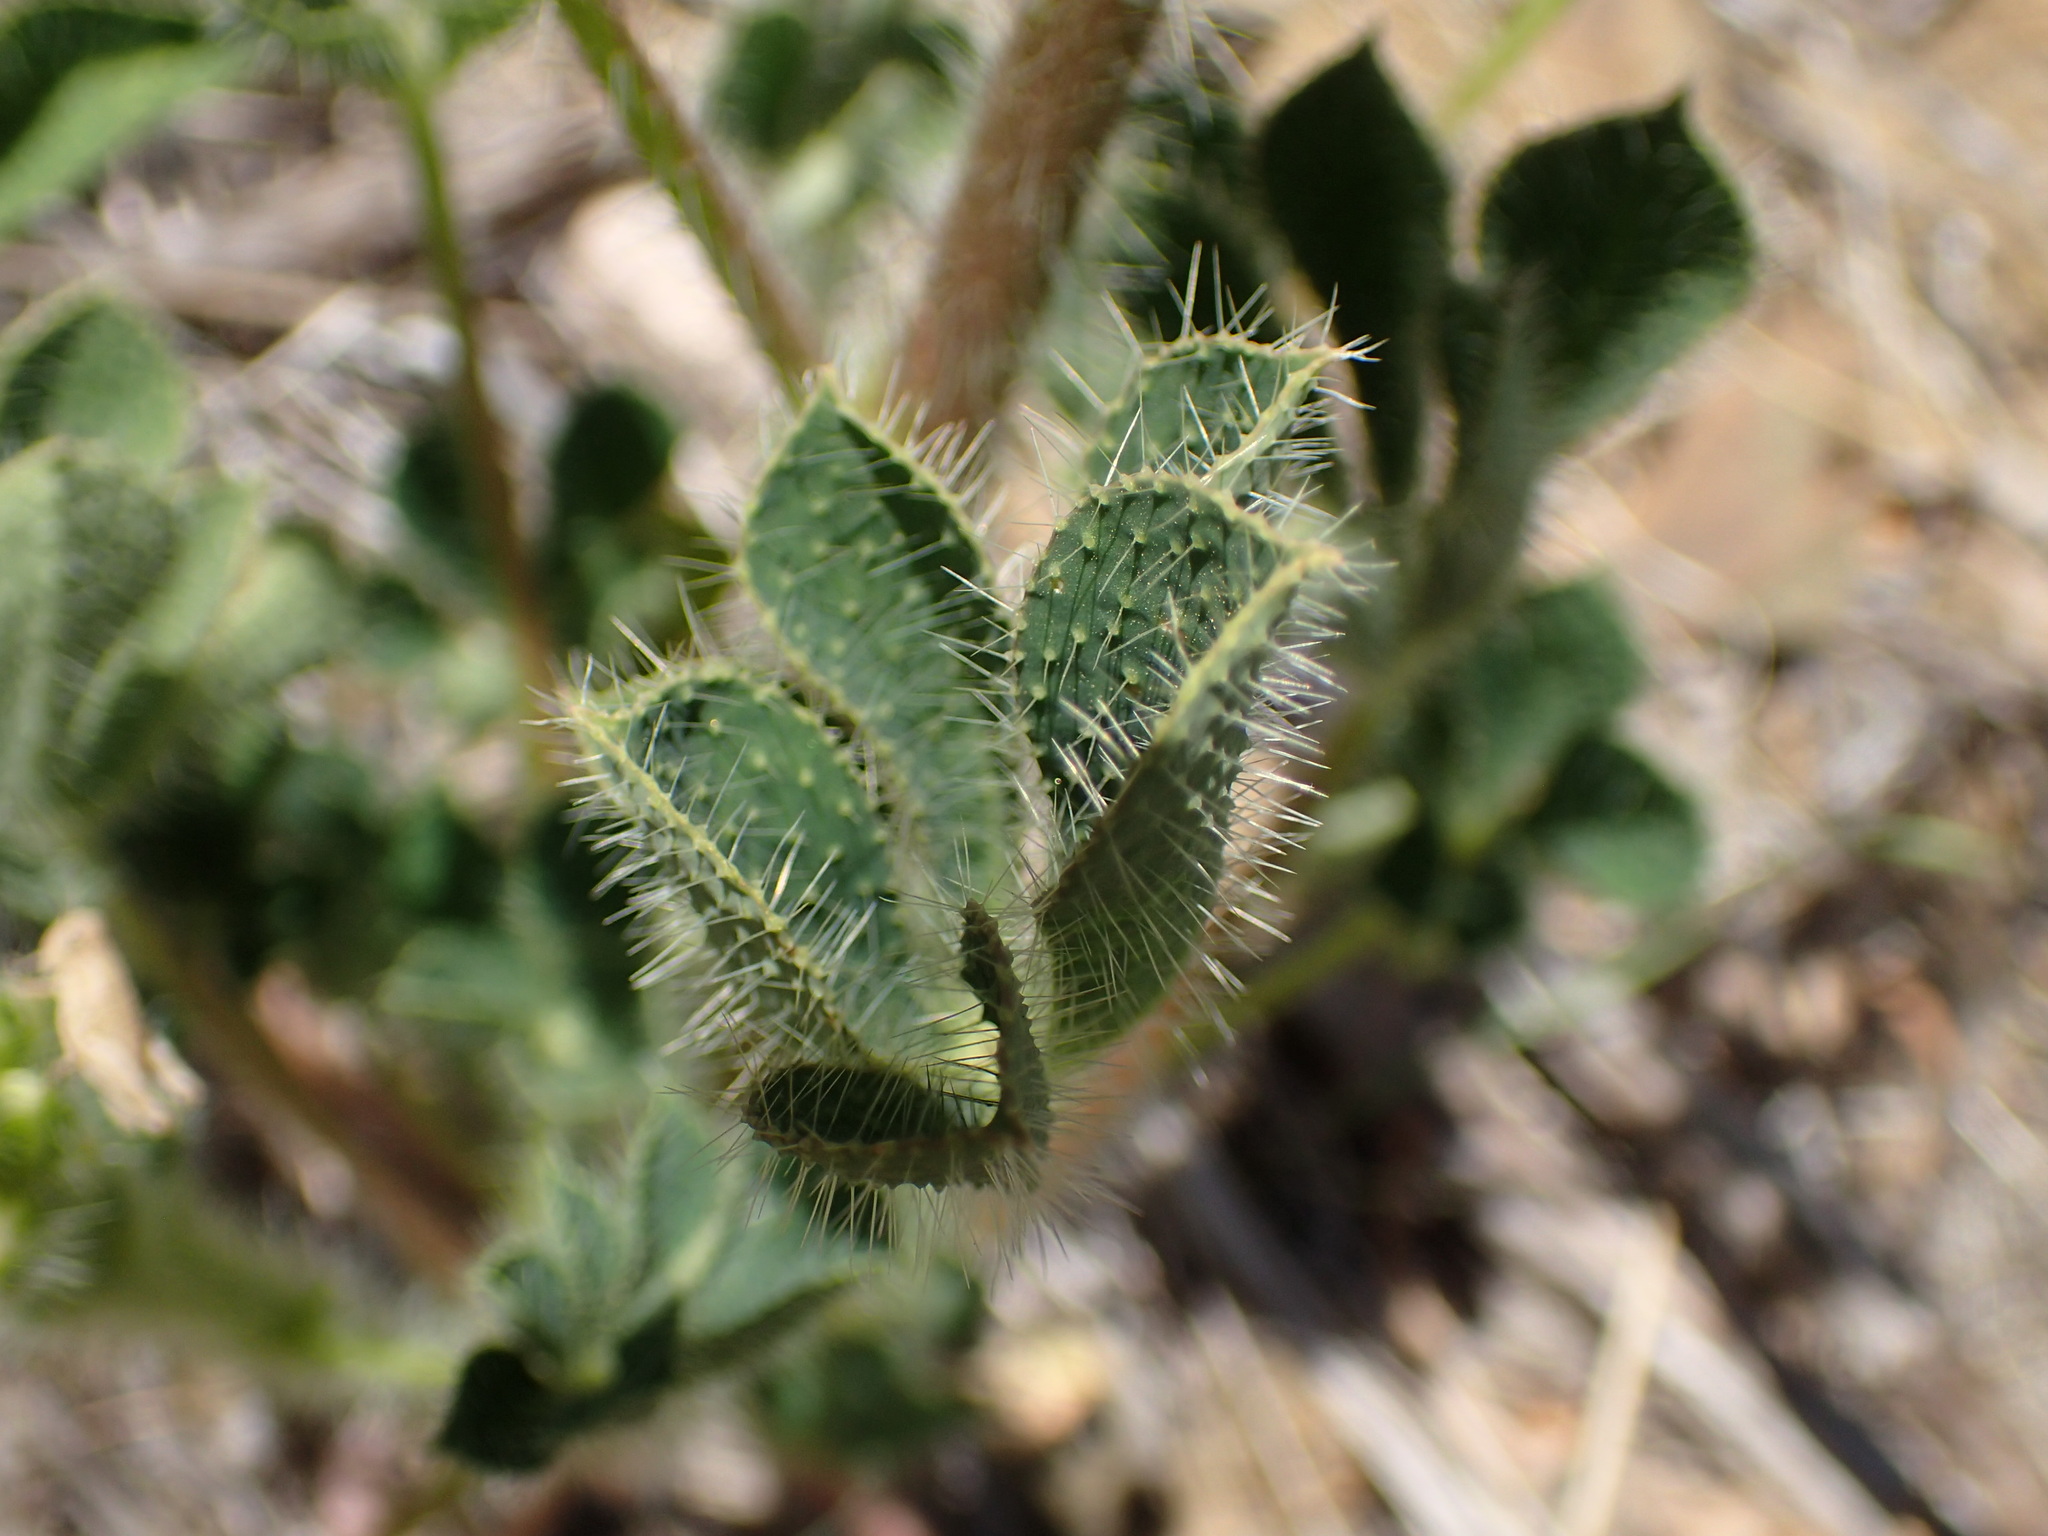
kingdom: Plantae
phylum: Tracheophyta
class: Magnoliopsida
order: Fabales
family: Fabaceae
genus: Lupinus
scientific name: Lupinus hirsutissimus
